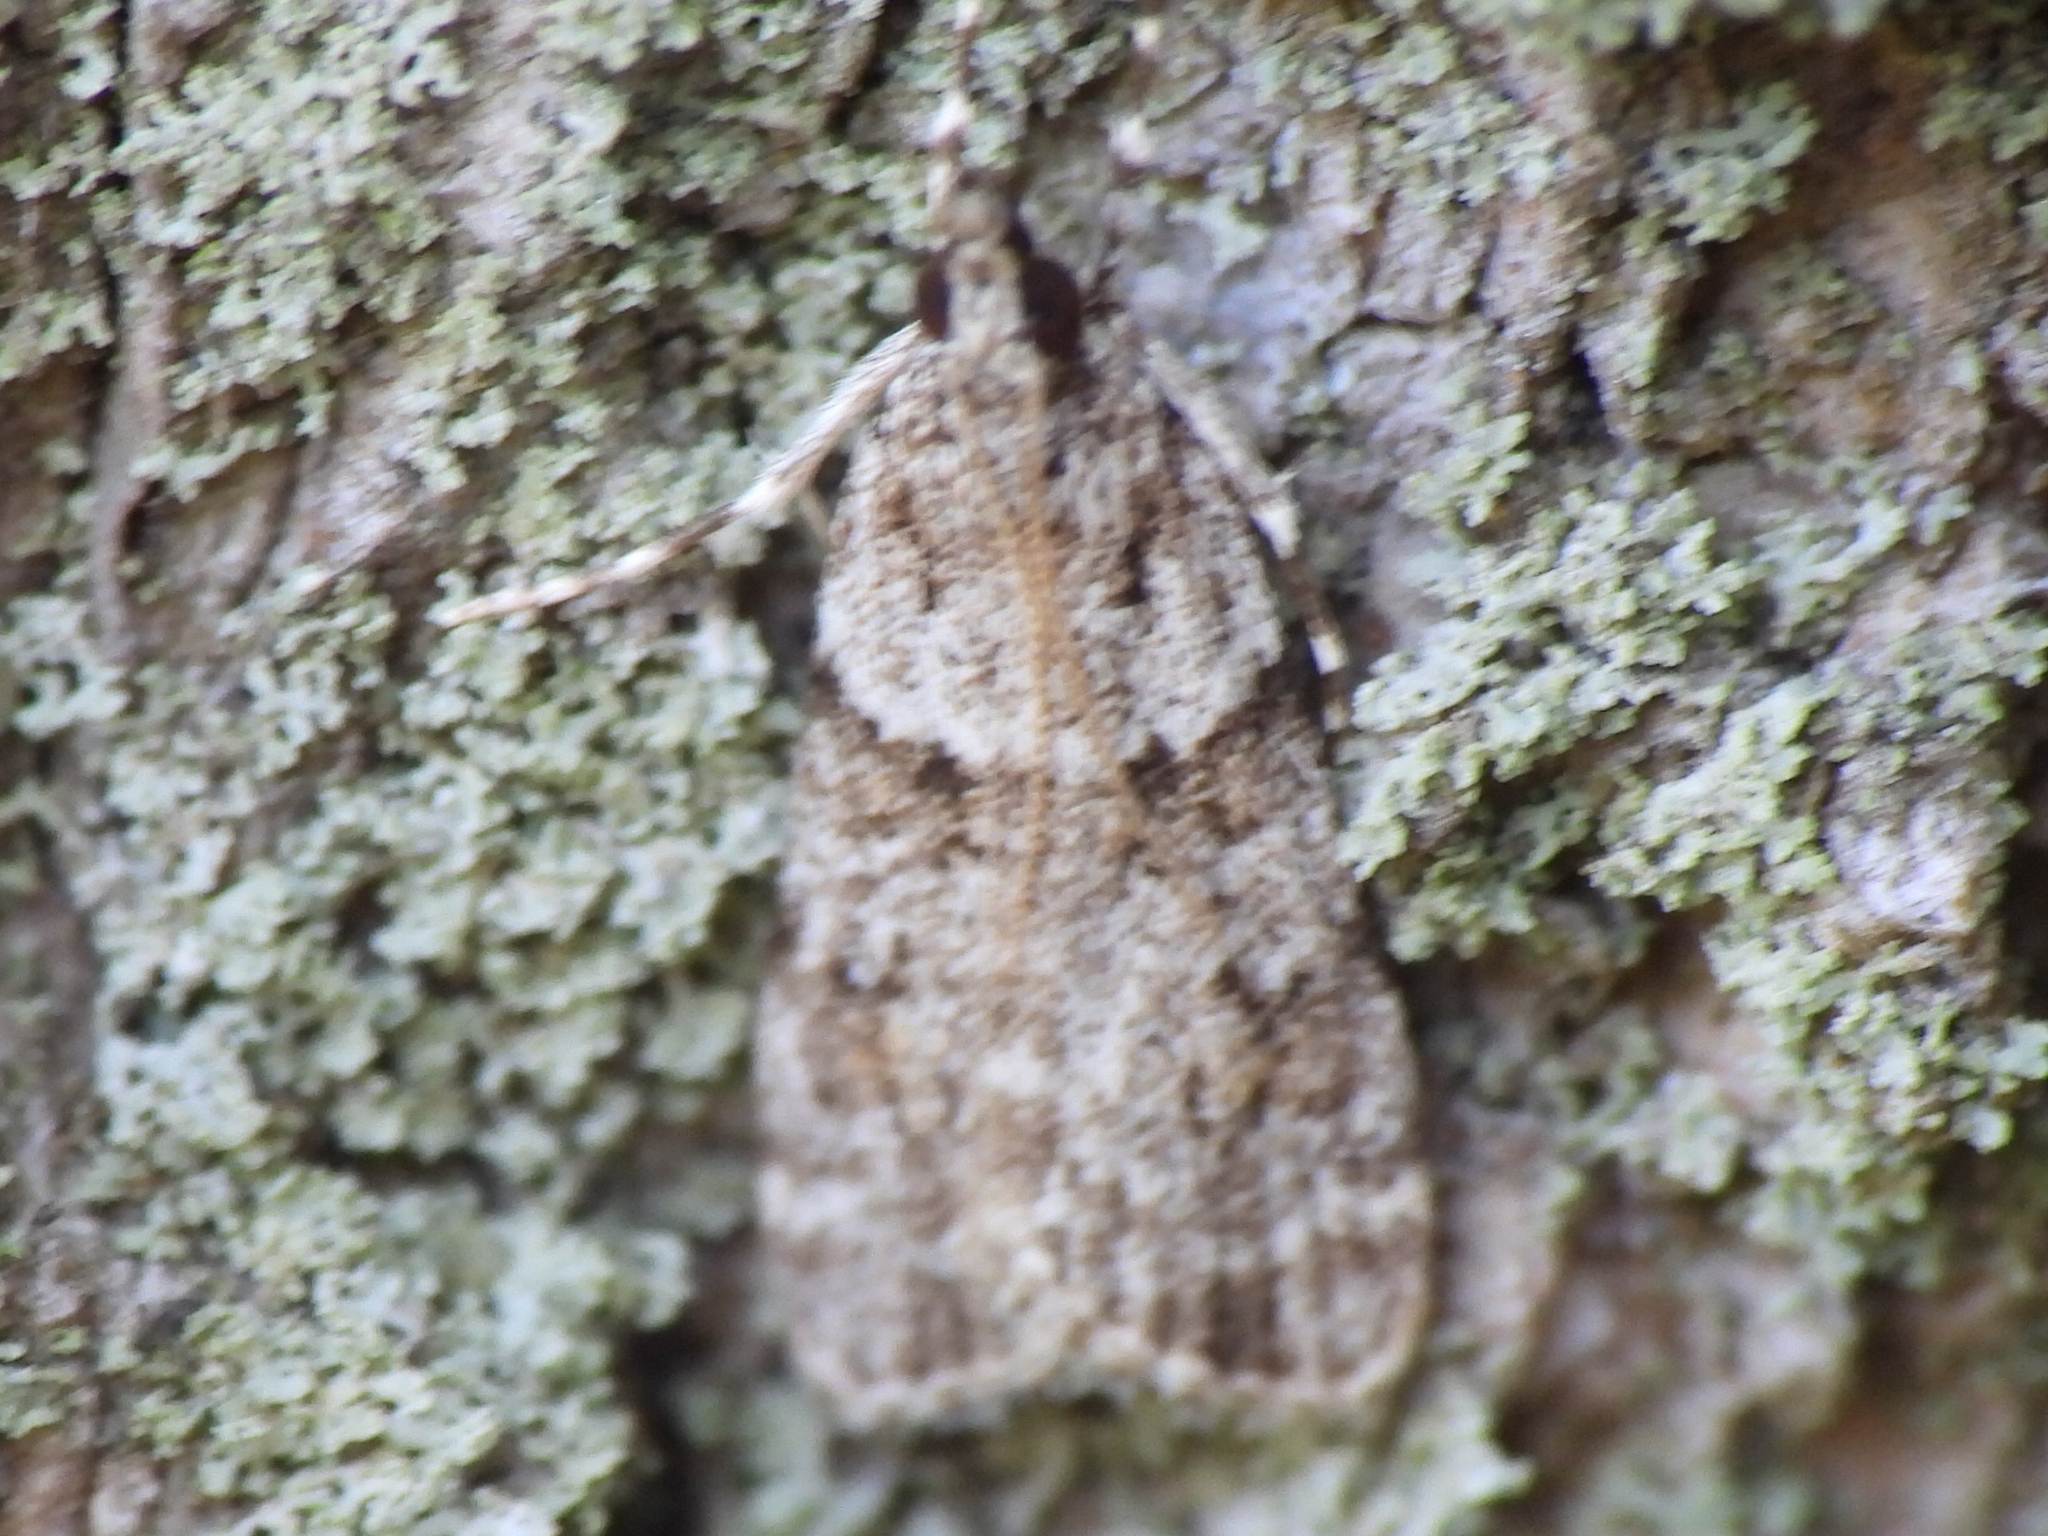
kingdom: Animalia
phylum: Arthropoda
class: Insecta
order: Lepidoptera
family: Crambidae
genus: Scoparia
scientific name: Scoparia biplagialis
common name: Double-striped scoparia moth
